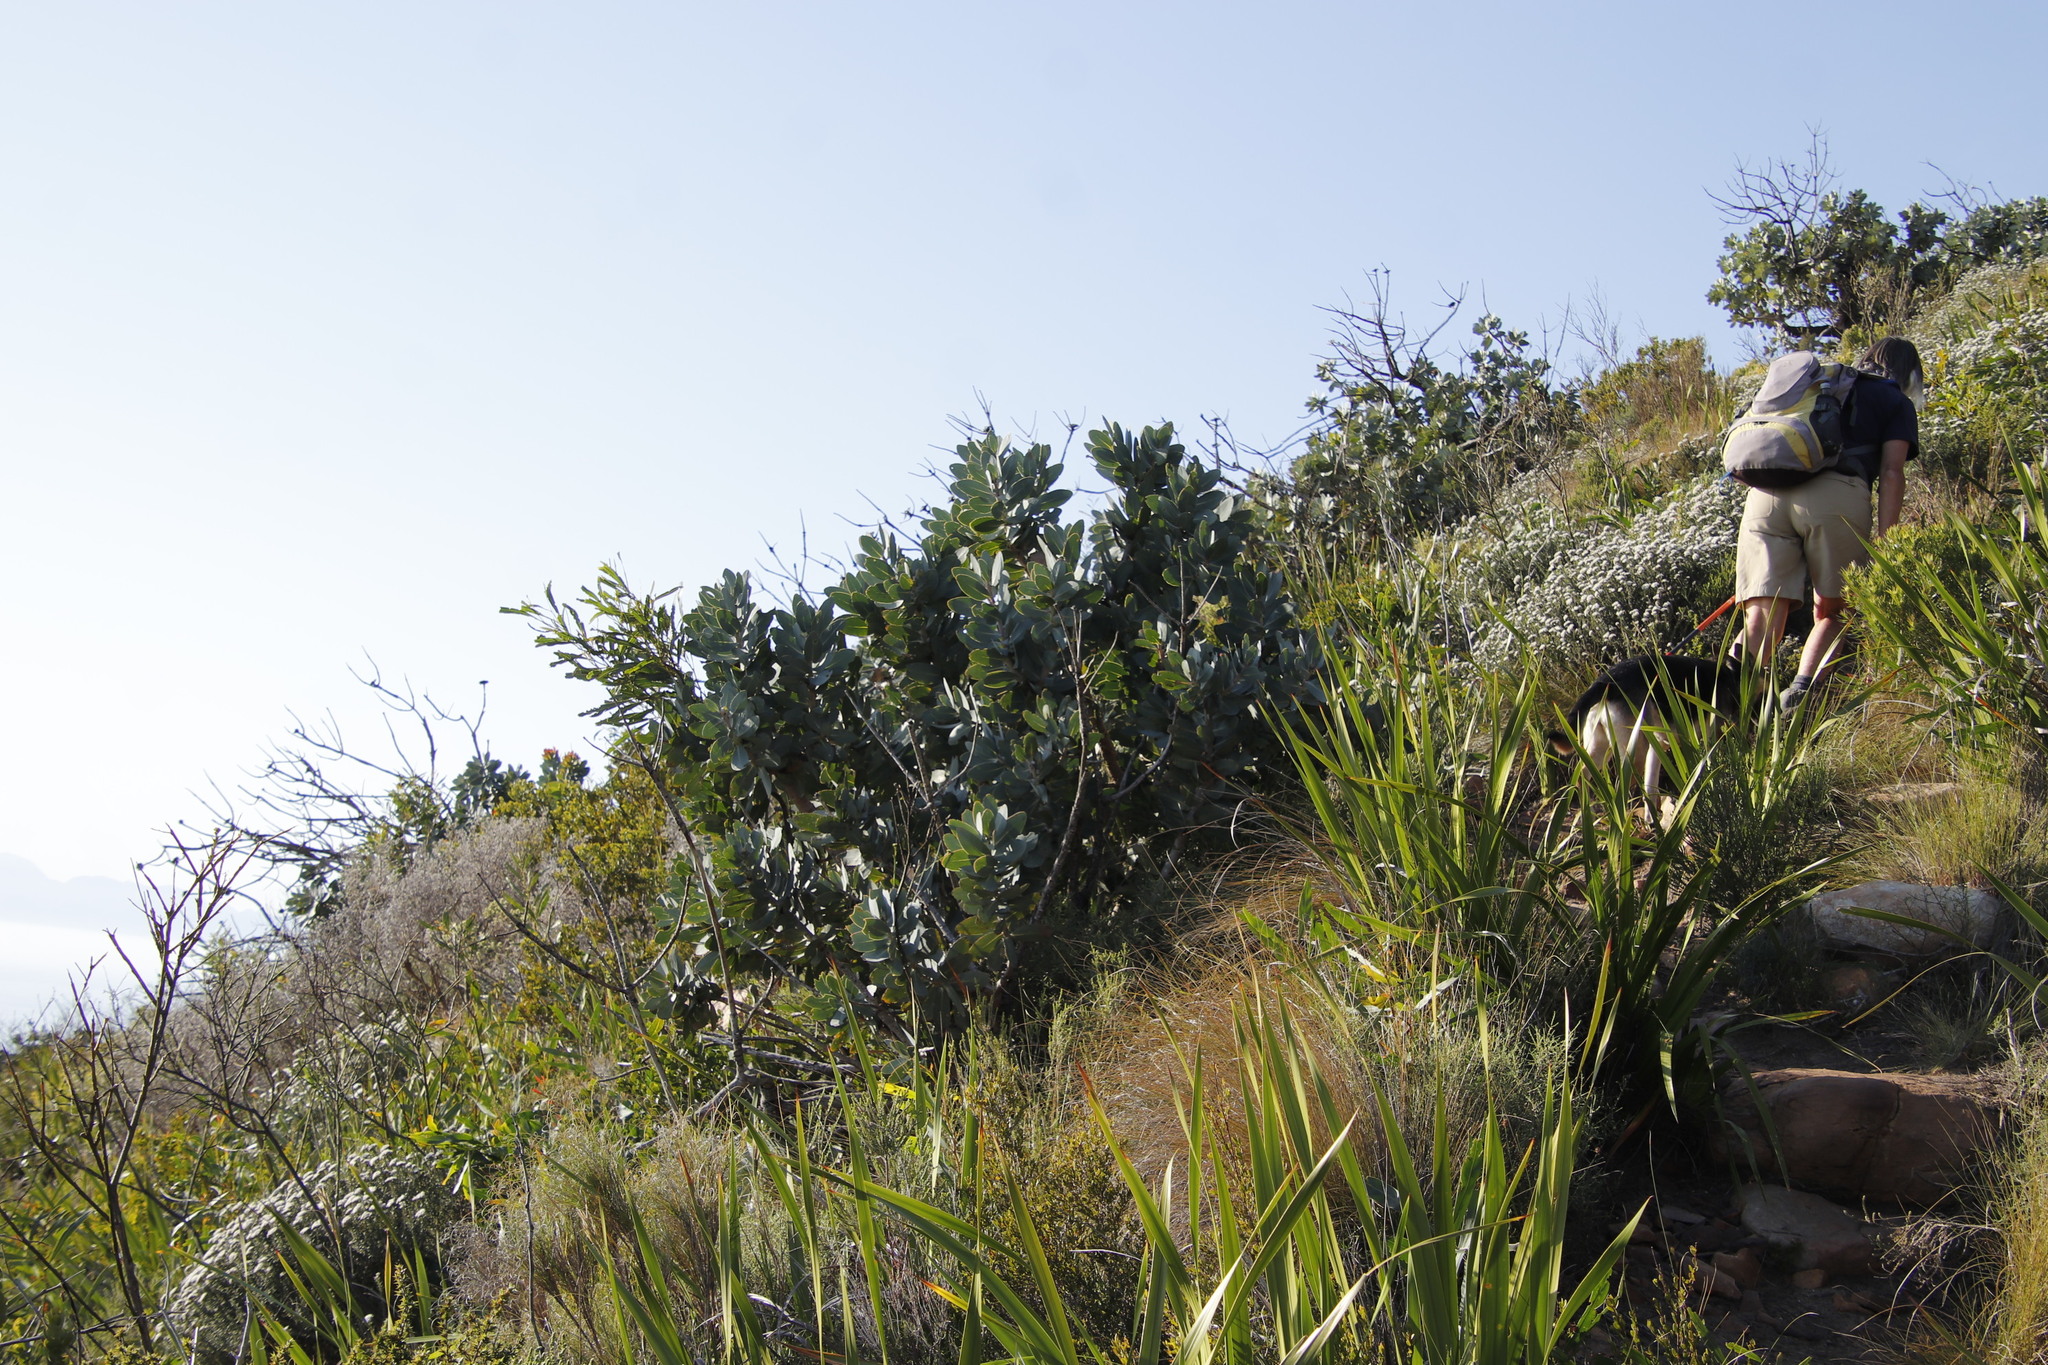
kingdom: Plantae
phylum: Tracheophyta
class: Magnoliopsida
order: Proteales
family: Proteaceae
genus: Protea
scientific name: Protea nitida
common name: Tree protea
